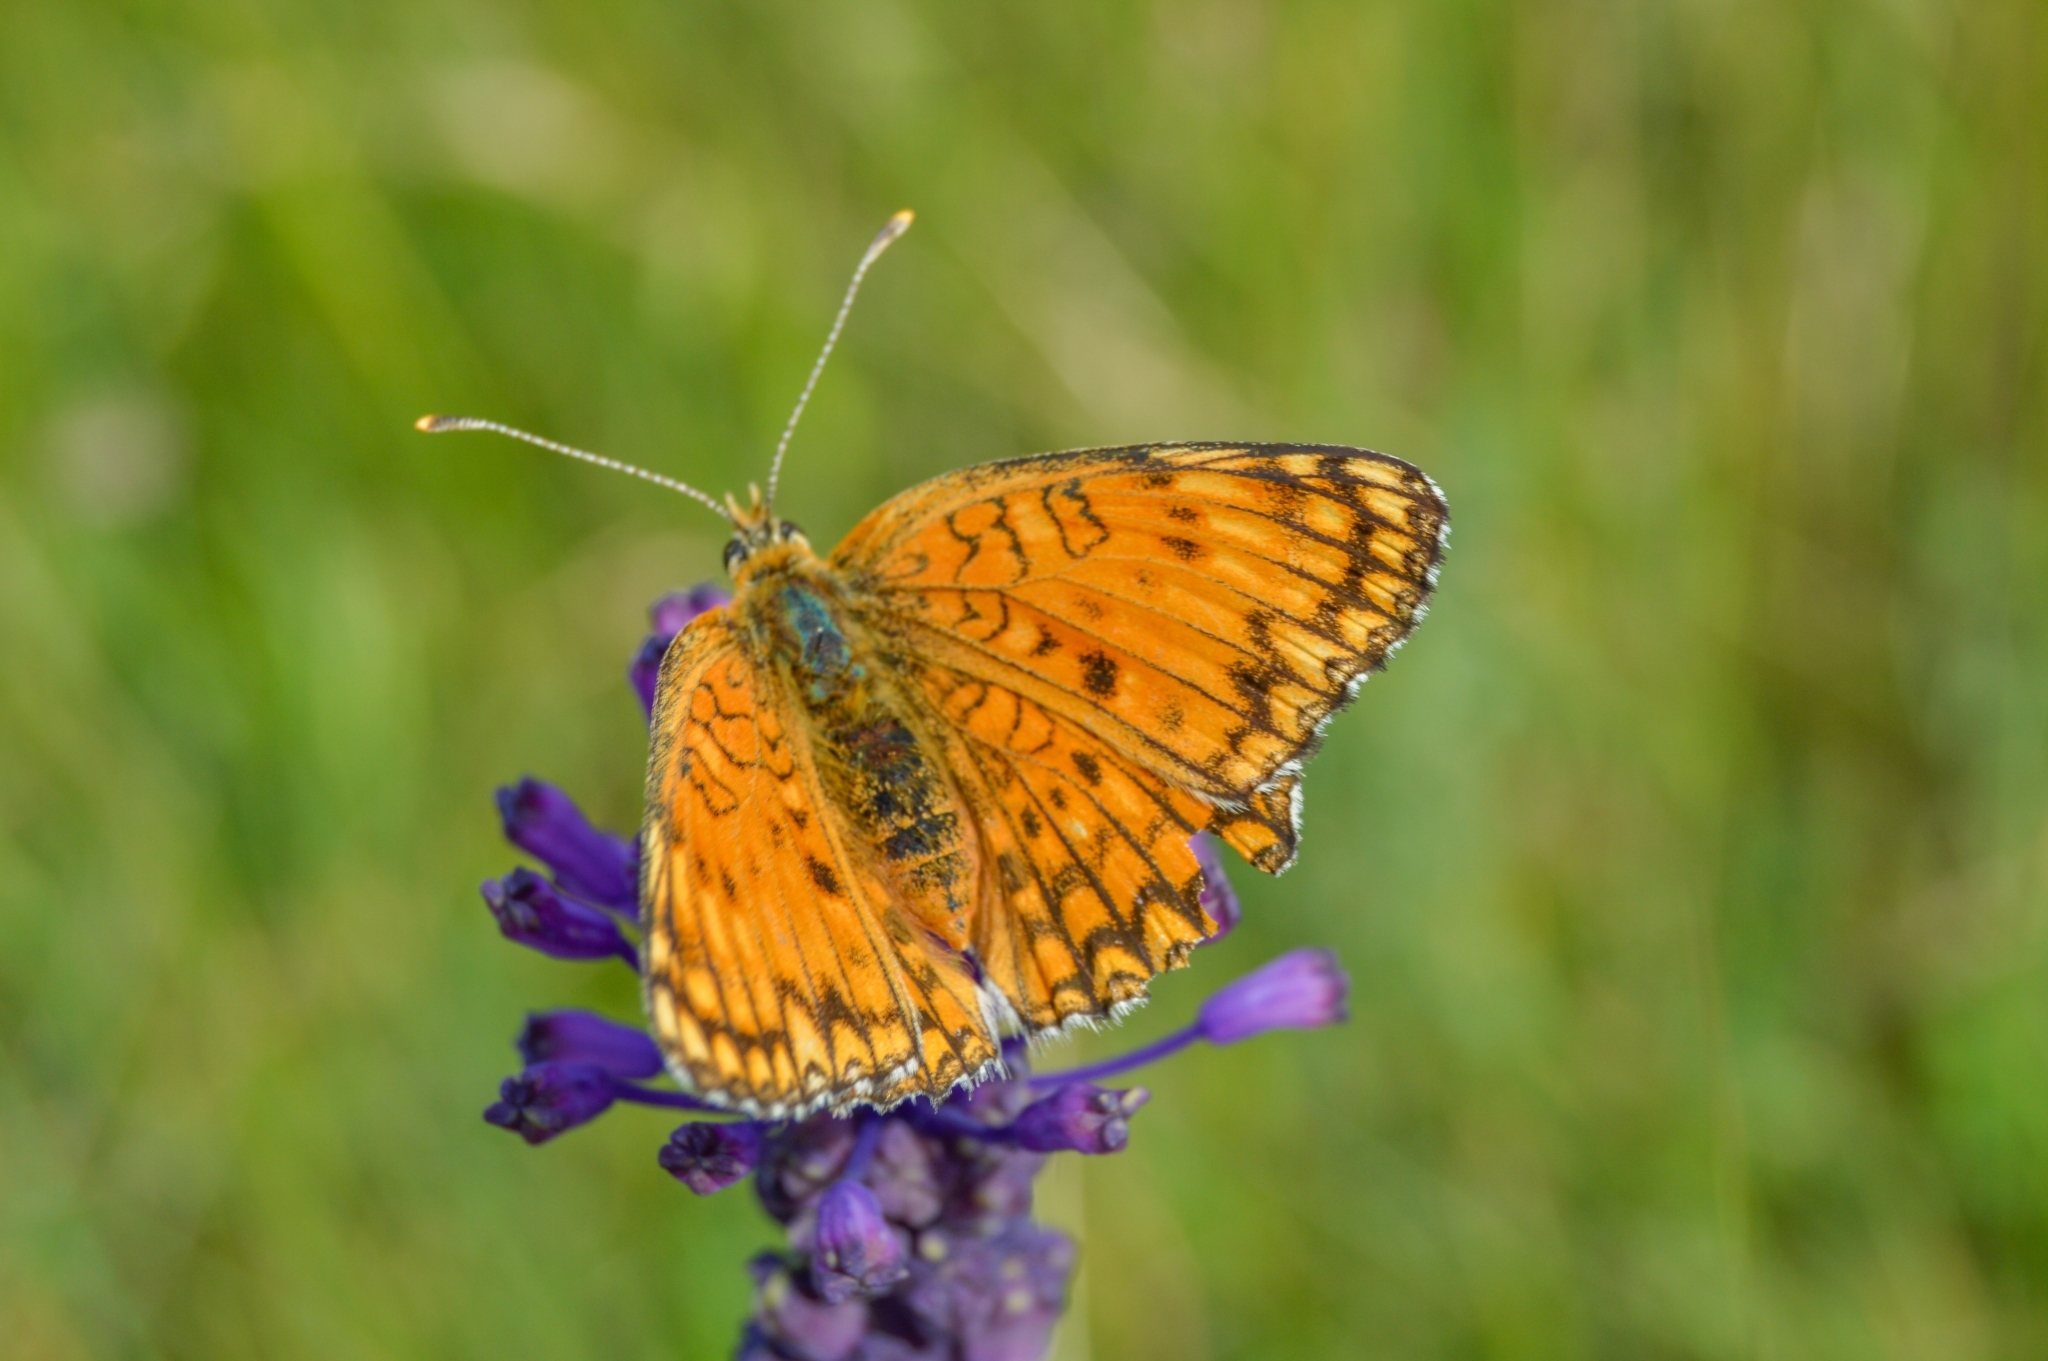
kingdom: Animalia
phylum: Arthropoda
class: Insecta
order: Lepidoptera
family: Nymphalidae
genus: Melitaea
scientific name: Melitaea phoebe
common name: Knapweed fritillary
